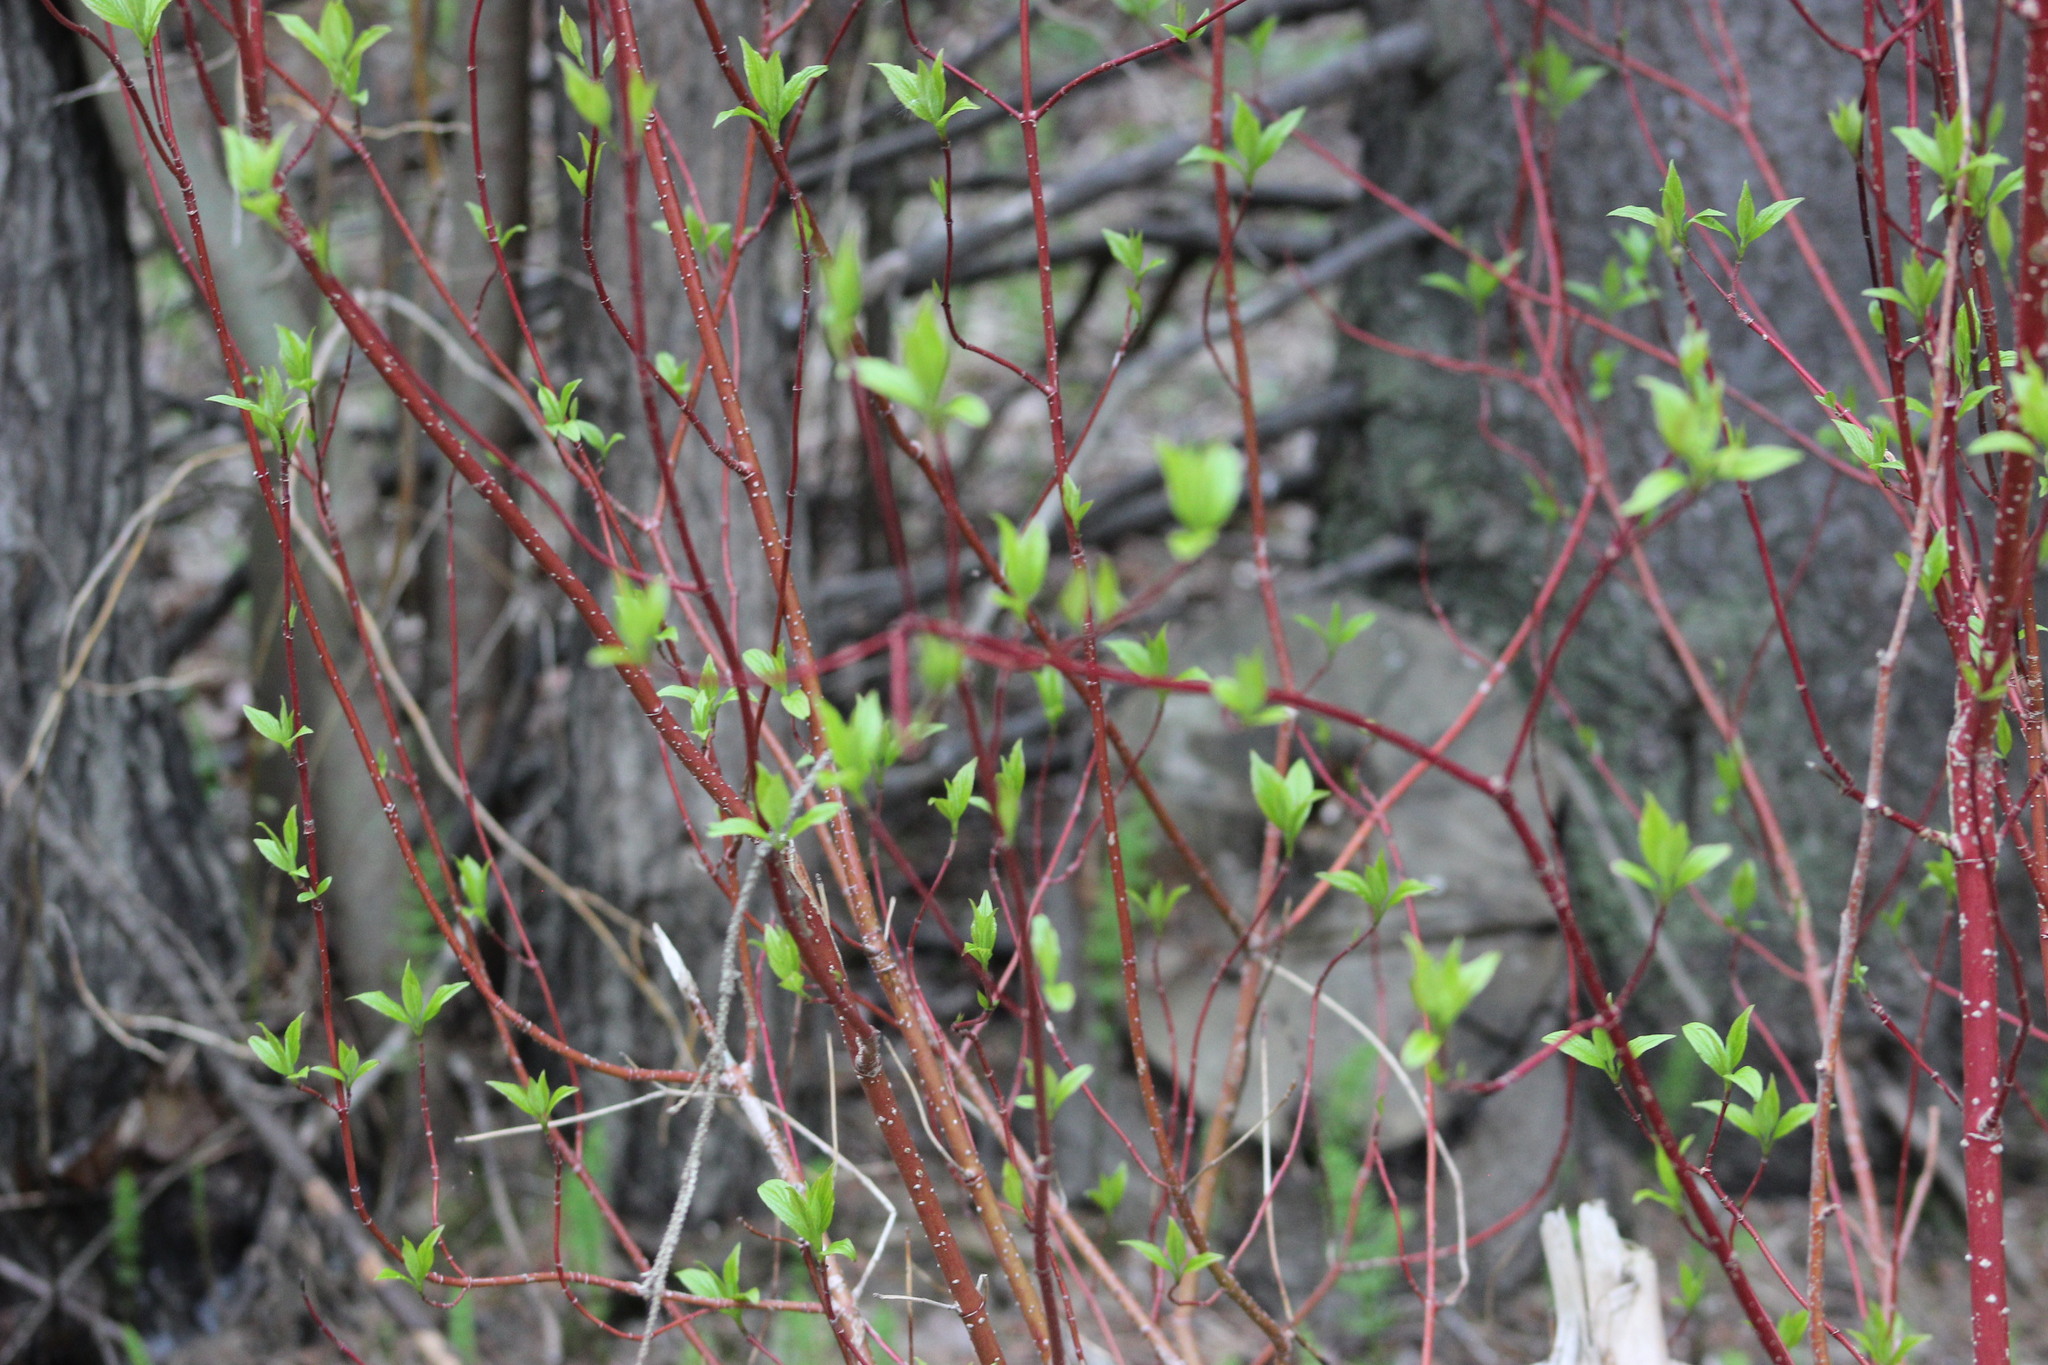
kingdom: Plantae
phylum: Tracheophyta
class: Magnoliopsida
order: Cornales
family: Cornaceae
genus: Cornus
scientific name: Cornus alba
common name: White dogwood
